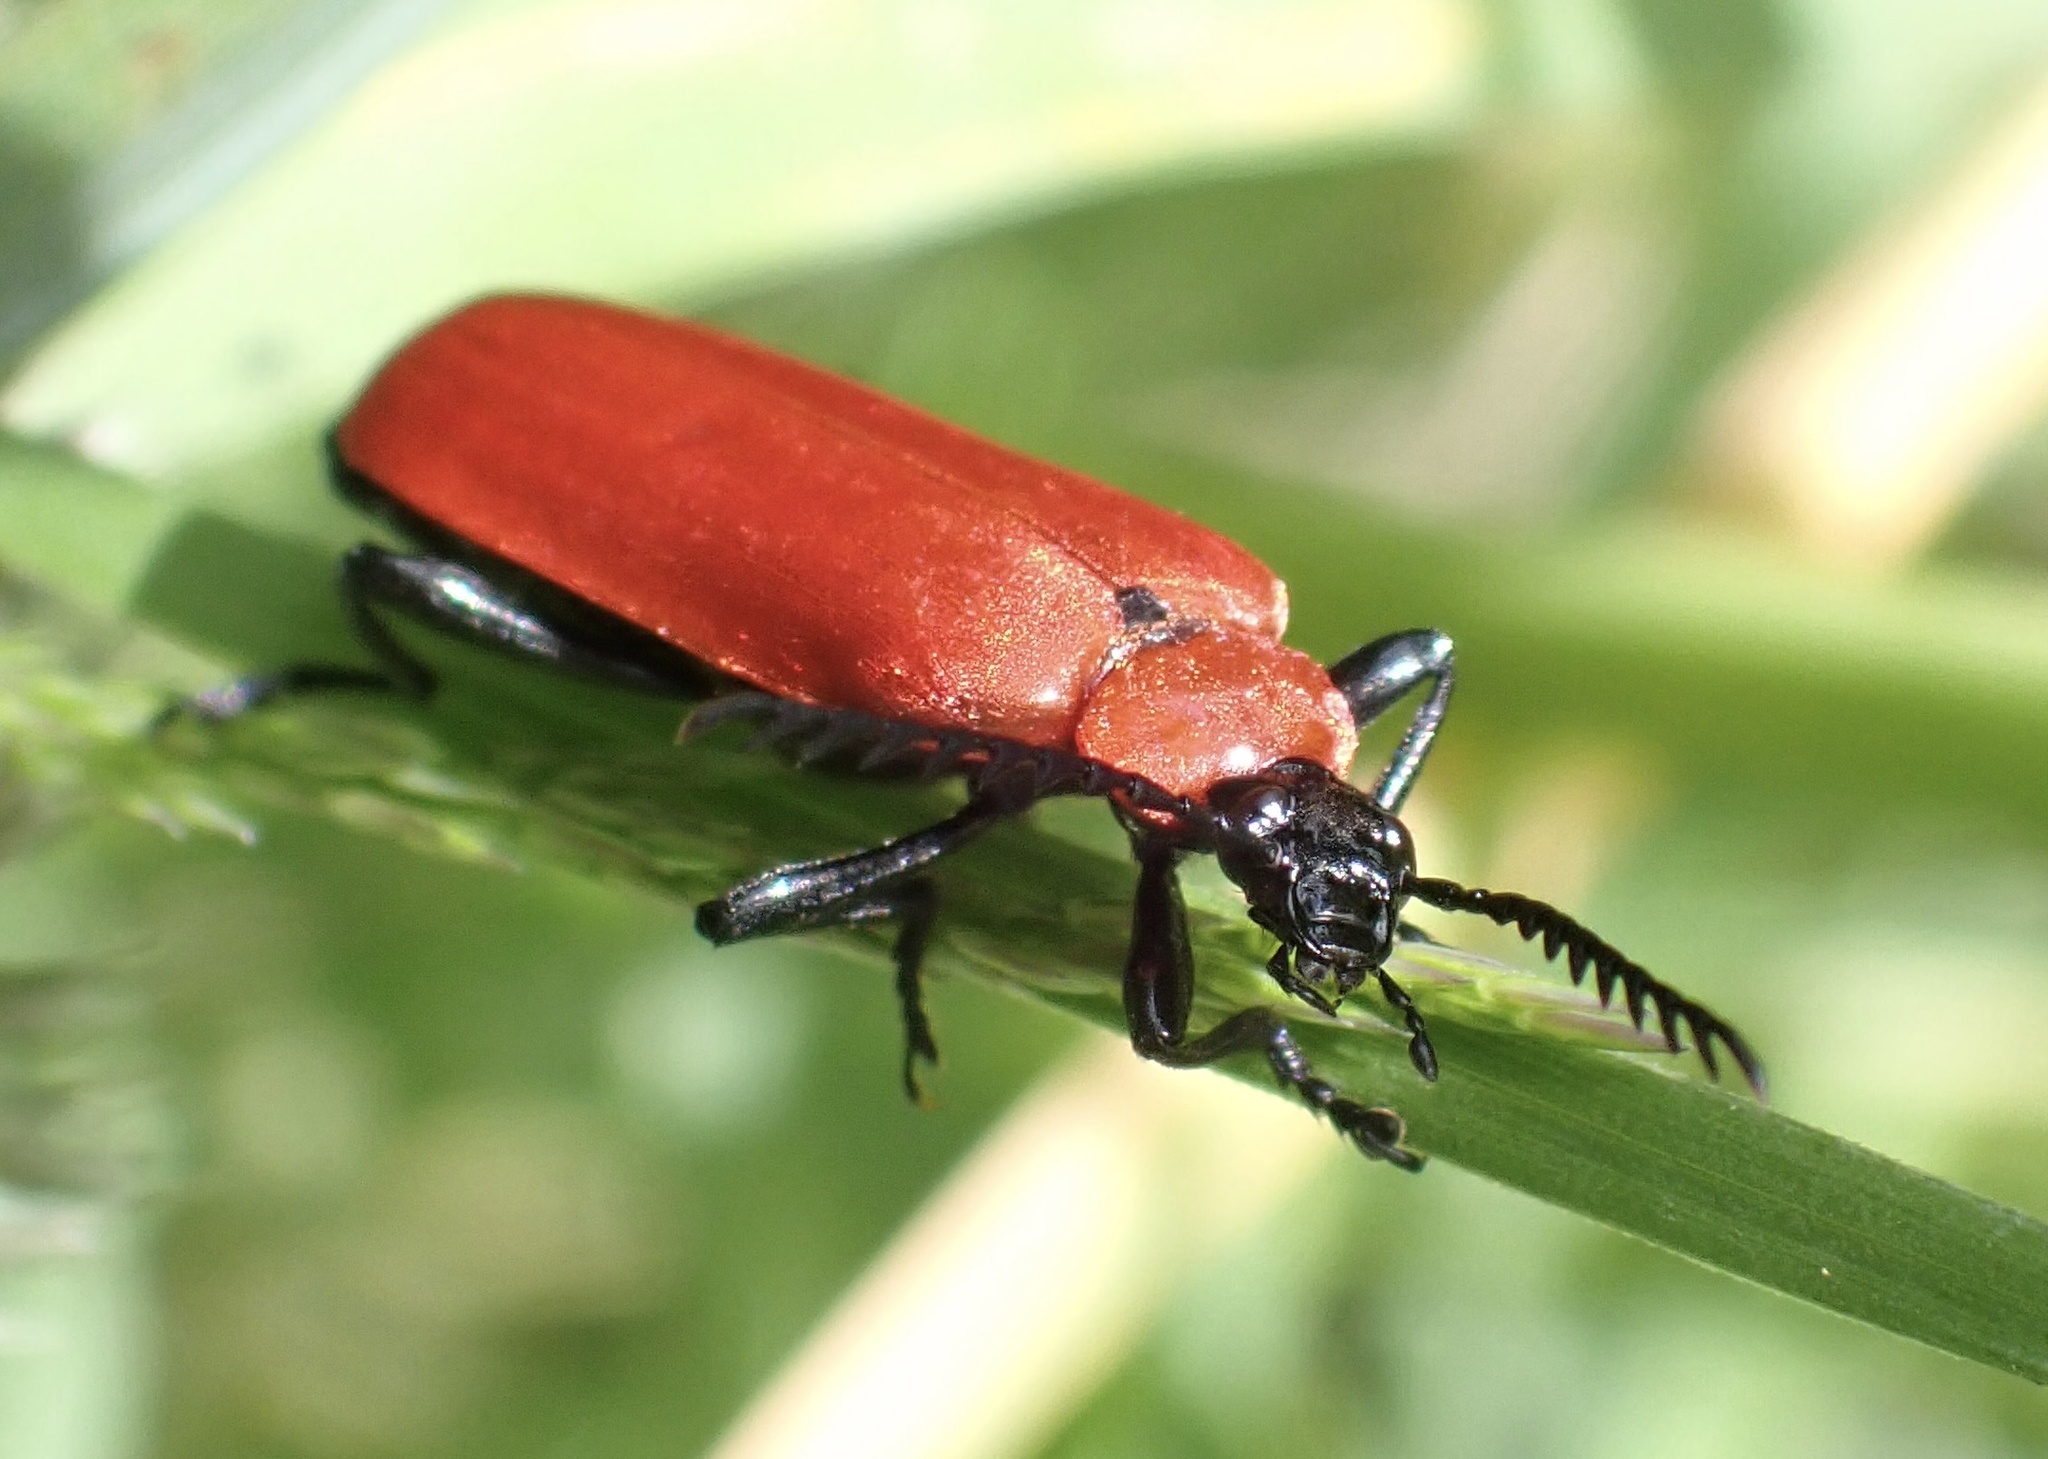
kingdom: Animalia
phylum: Arthropoda
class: Insecta
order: Coleoptera
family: Pyrochroidae
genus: Pyrochroa
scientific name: Pyrochroa coccinea
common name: Black-headed cardinal beetle
